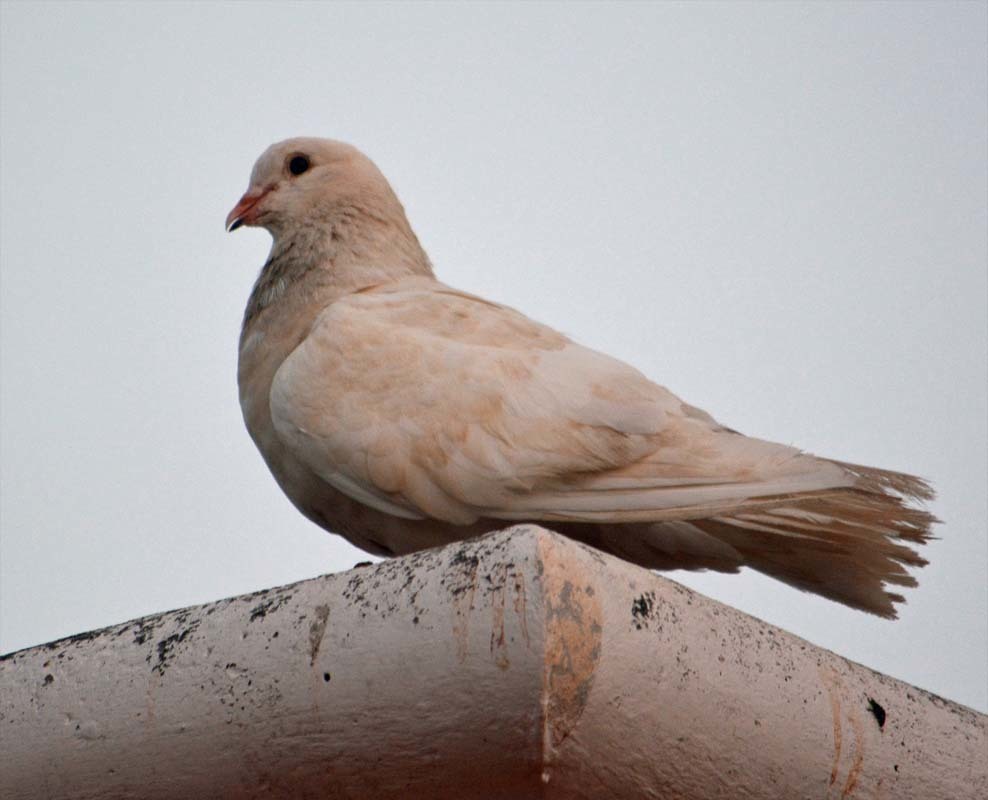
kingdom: Animalia
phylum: Chordata
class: Aves
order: Columbiformes
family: Columbidae
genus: Columba
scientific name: Columba livia
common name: Rock pigeon
